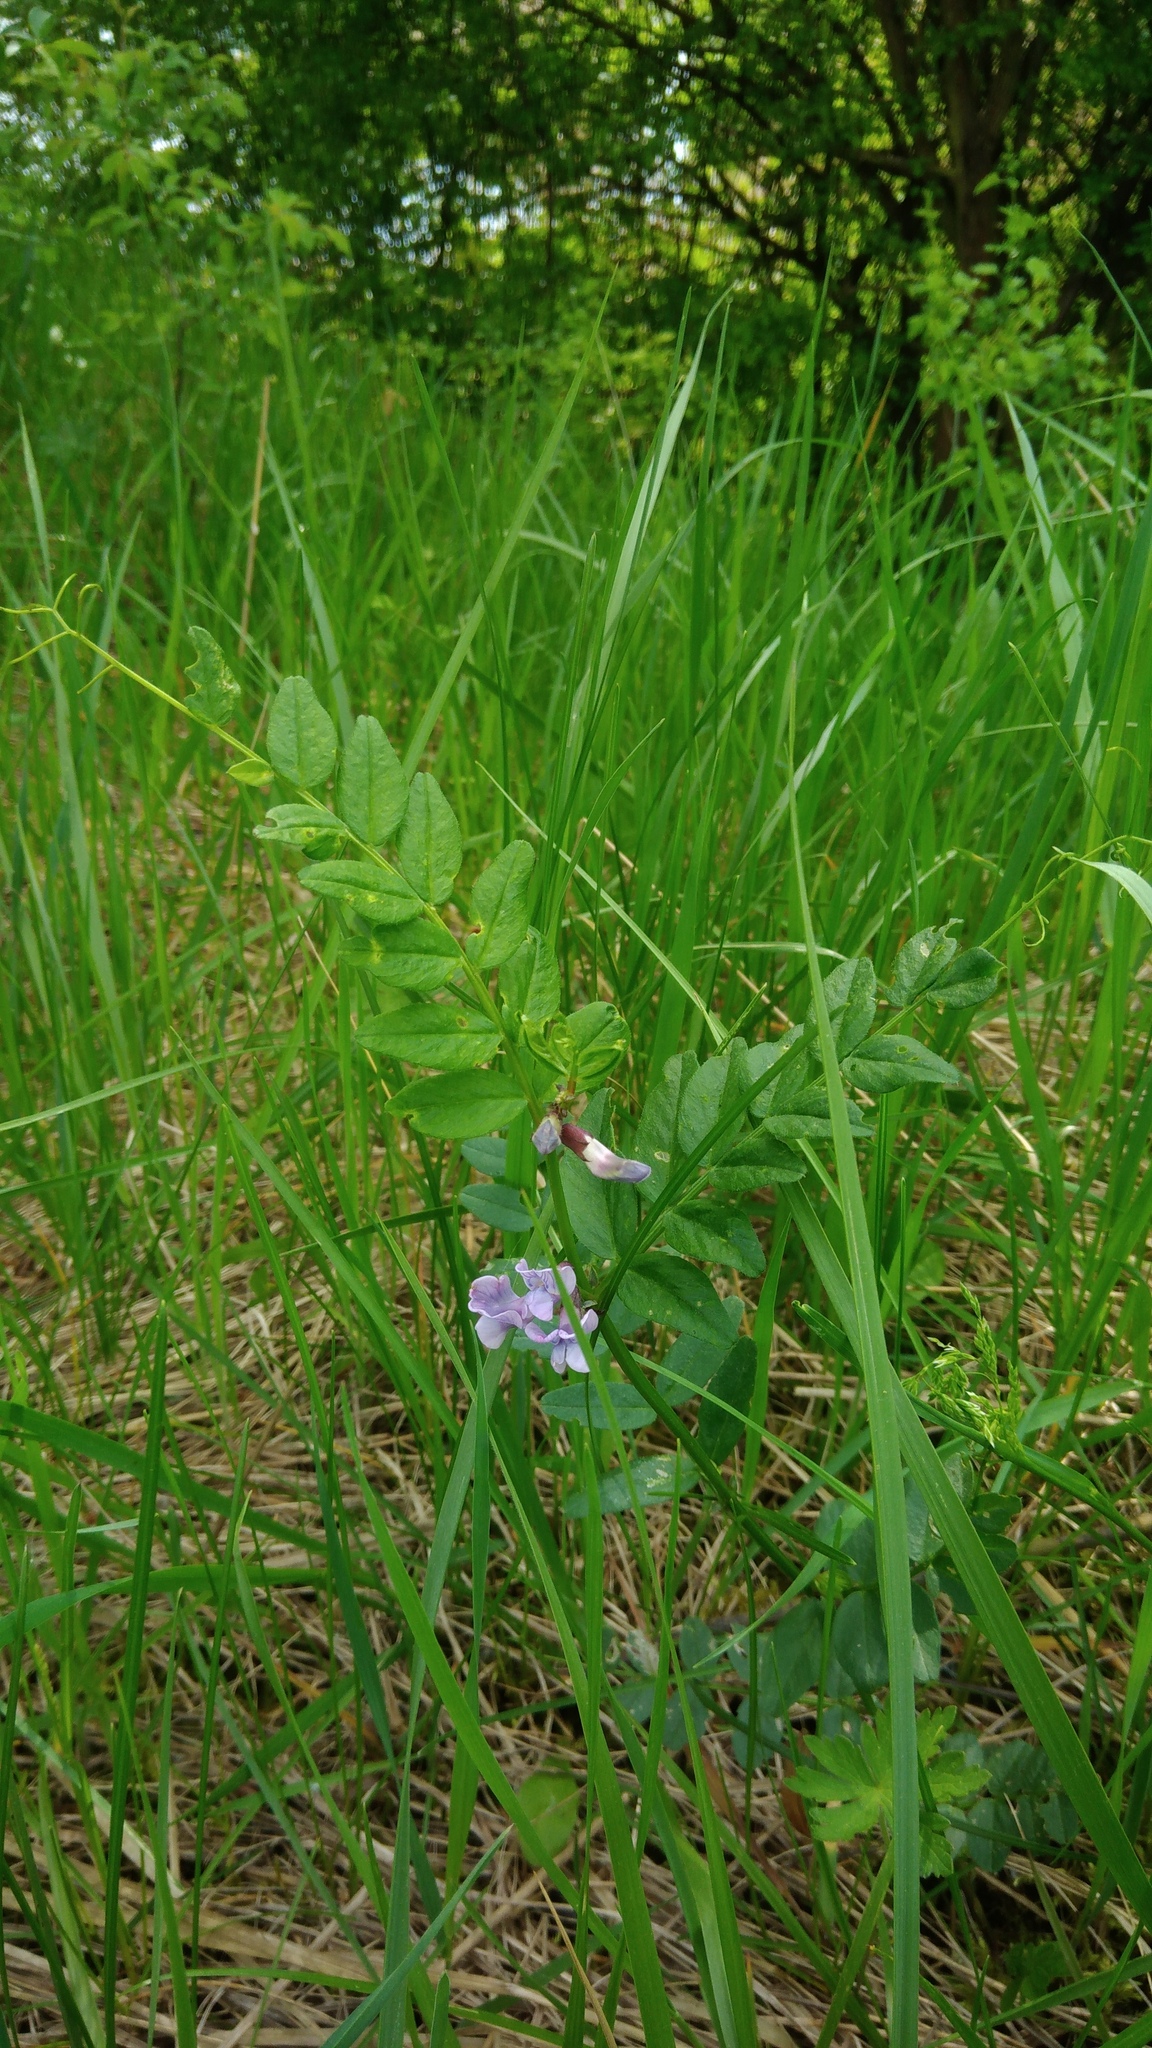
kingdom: Plantae
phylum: Tracheophyta
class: Magnoliopsida
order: Fabales
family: Fabaceae
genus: Vicia
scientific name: Vicia sepium
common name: Bush vetch
